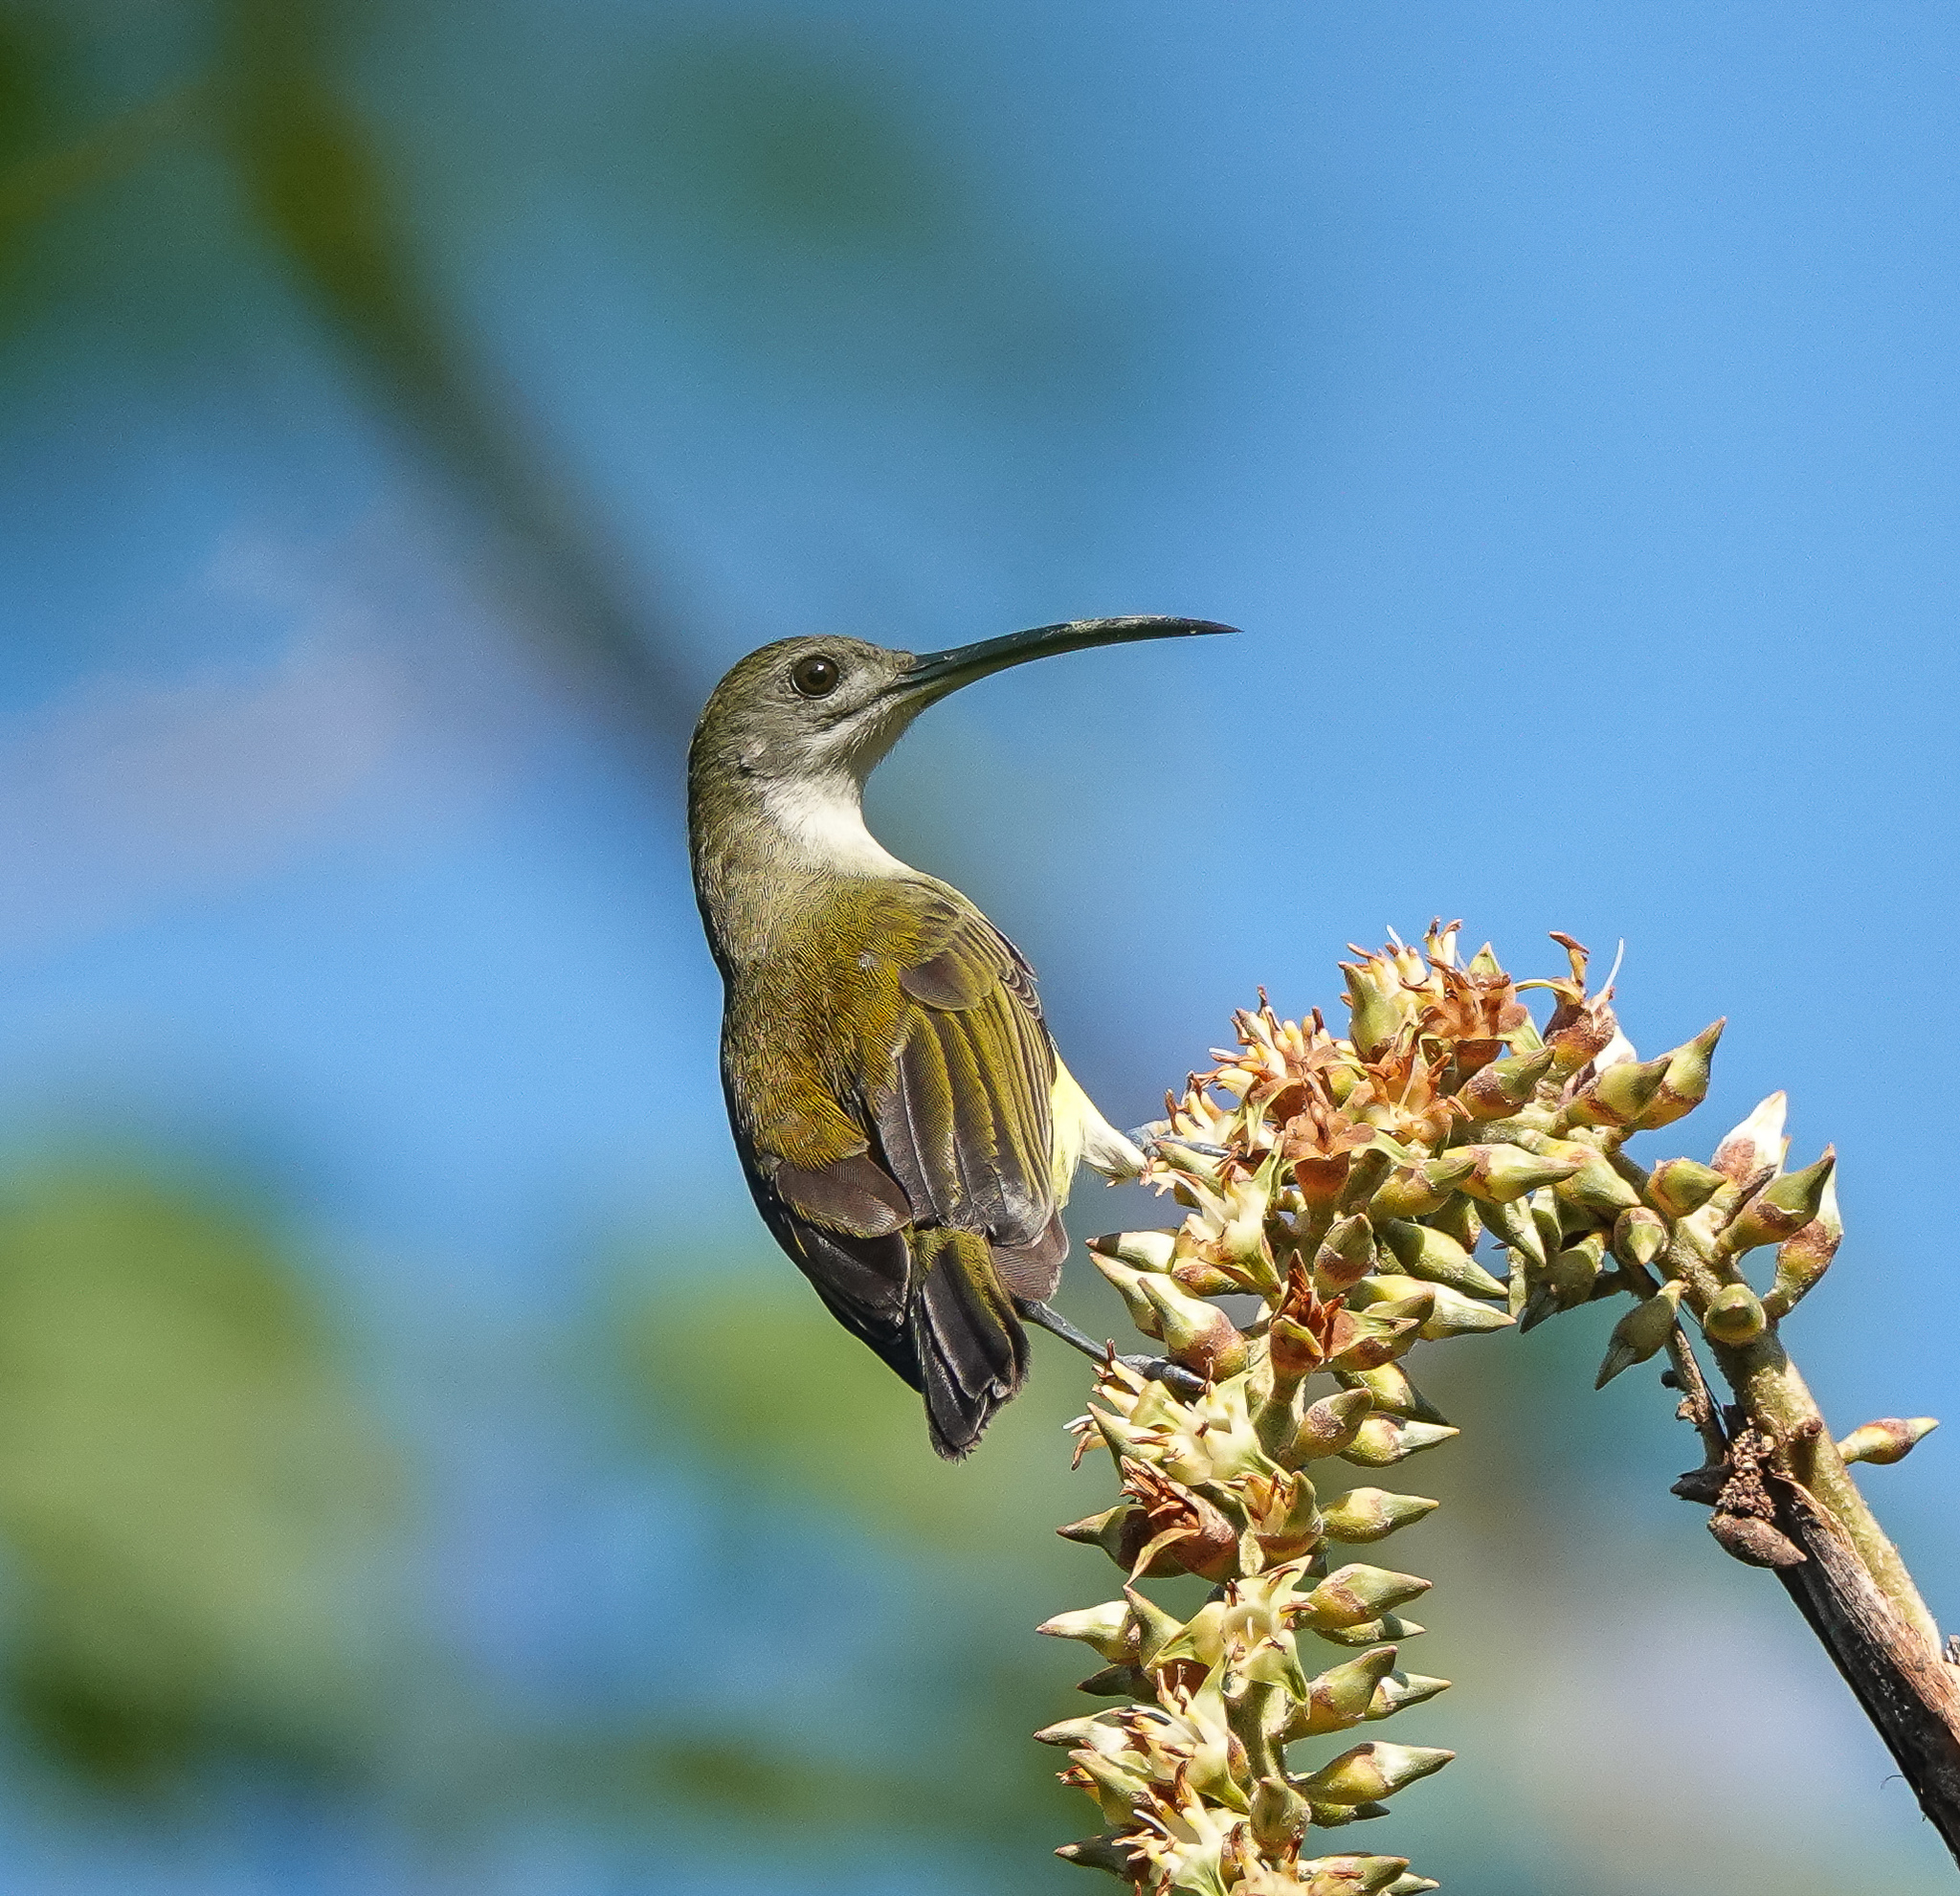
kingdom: Animalia
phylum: Chordata
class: Aves
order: Passeriformes
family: Nectariniidae
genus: Arachnothera
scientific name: Arachnothera longirostra
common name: Little spiderhunter
